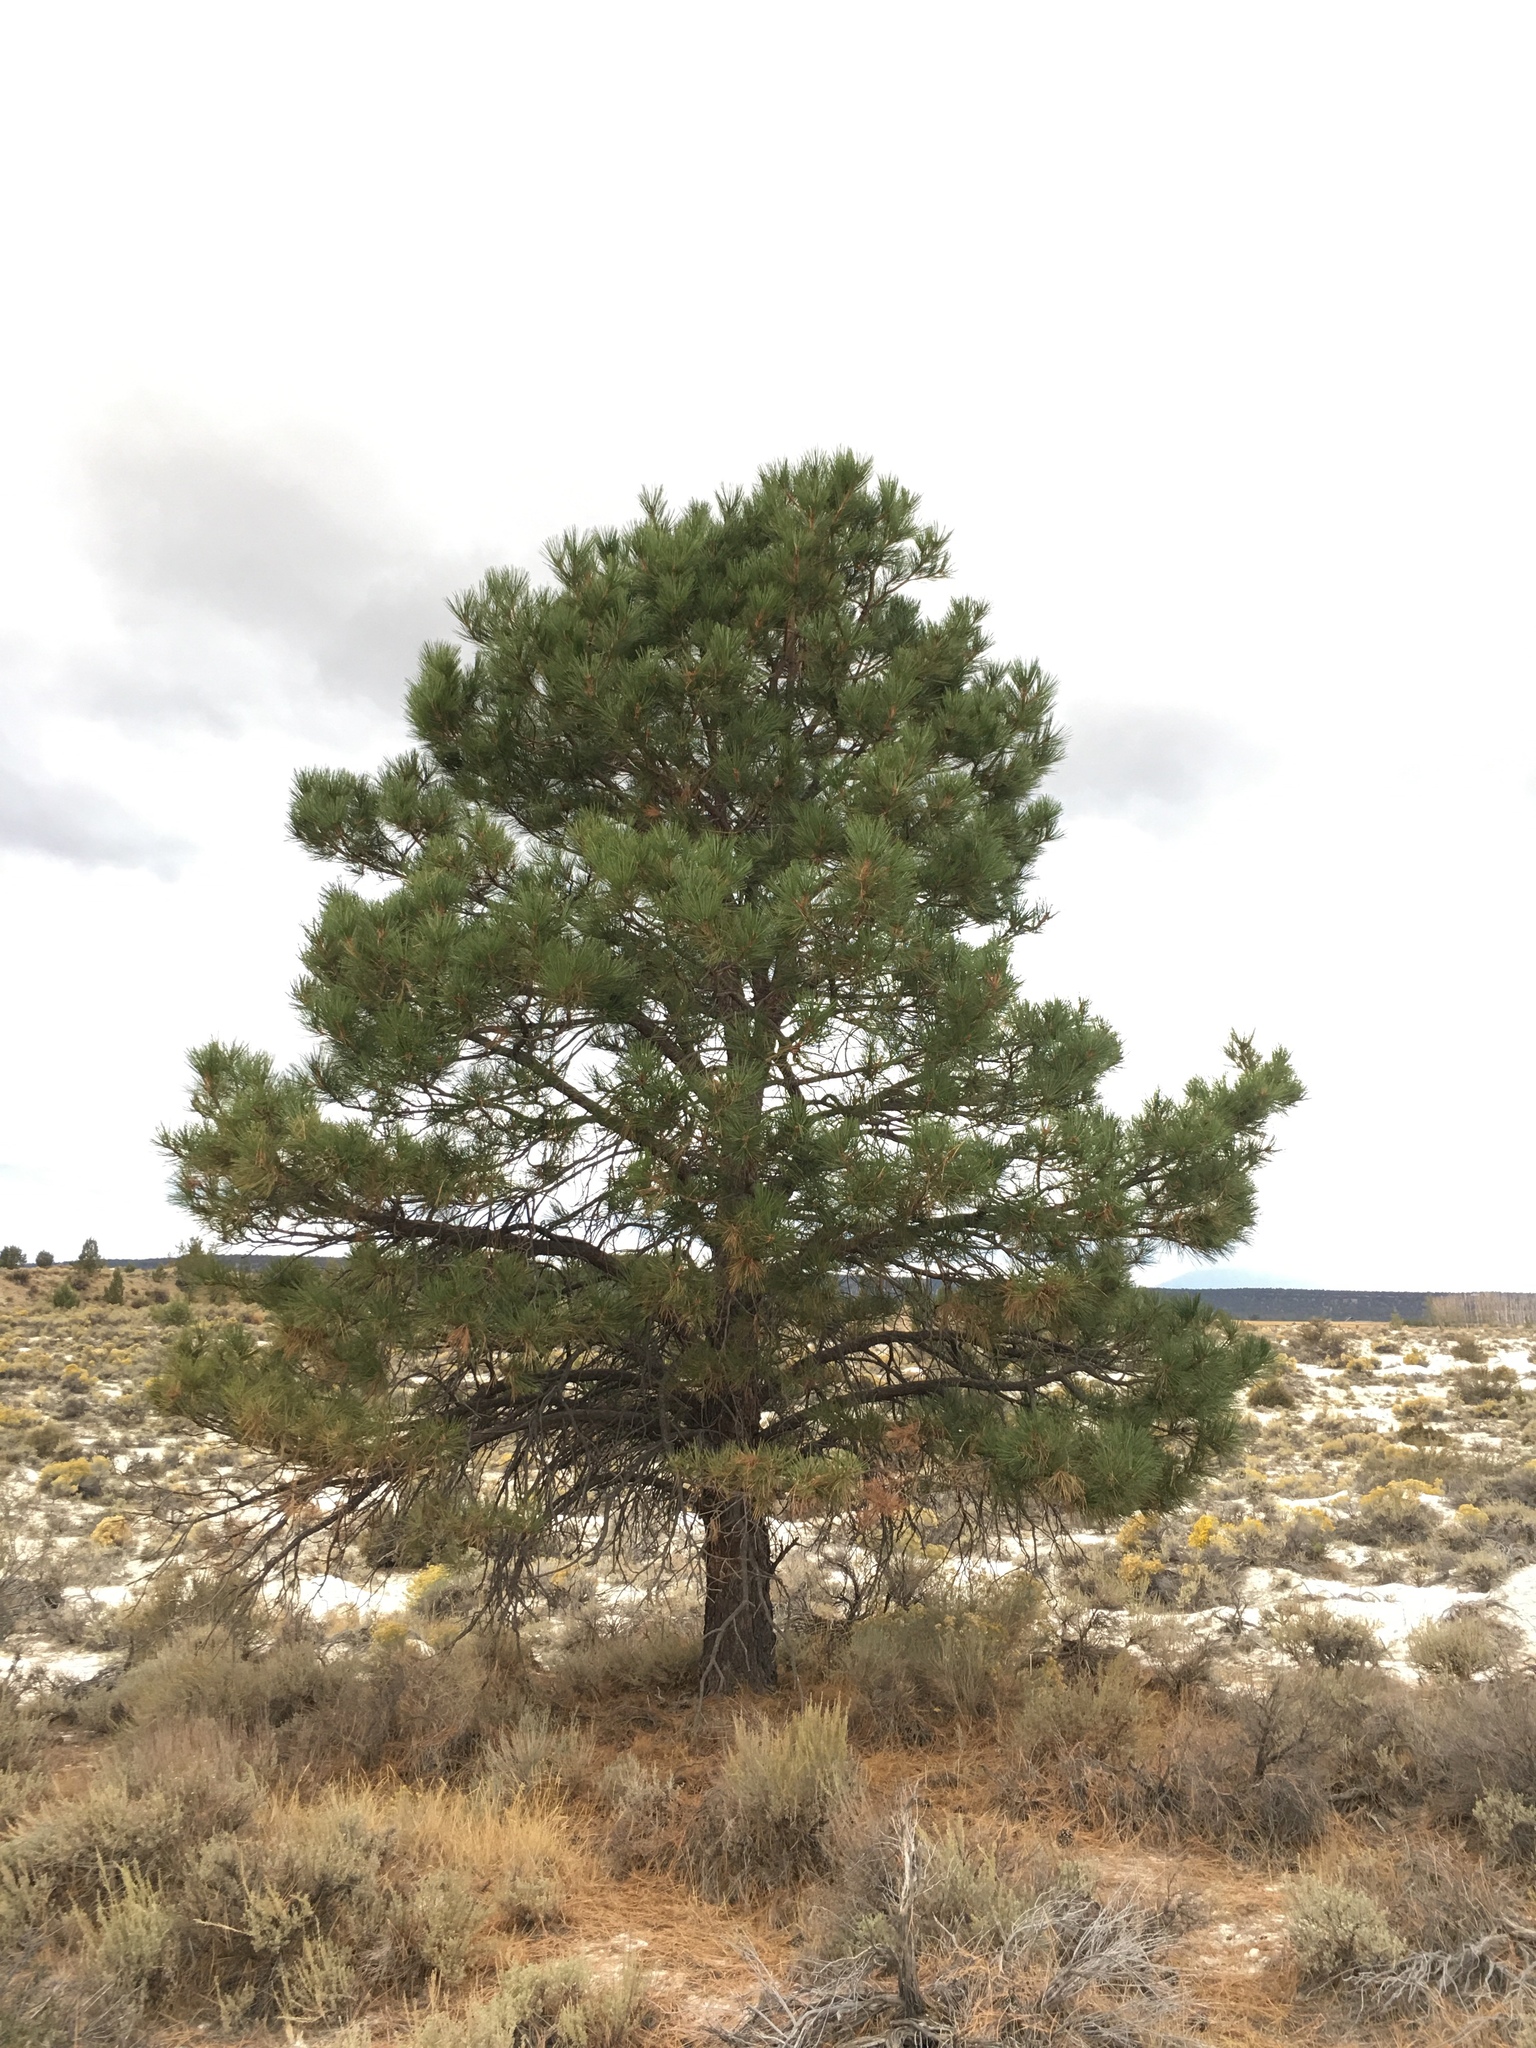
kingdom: Plantae
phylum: Tracheophyta
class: Pinopsida
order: Pinales
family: Pinaceae
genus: Pinus
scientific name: Pinus ponderosa
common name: Western yellow-pine
